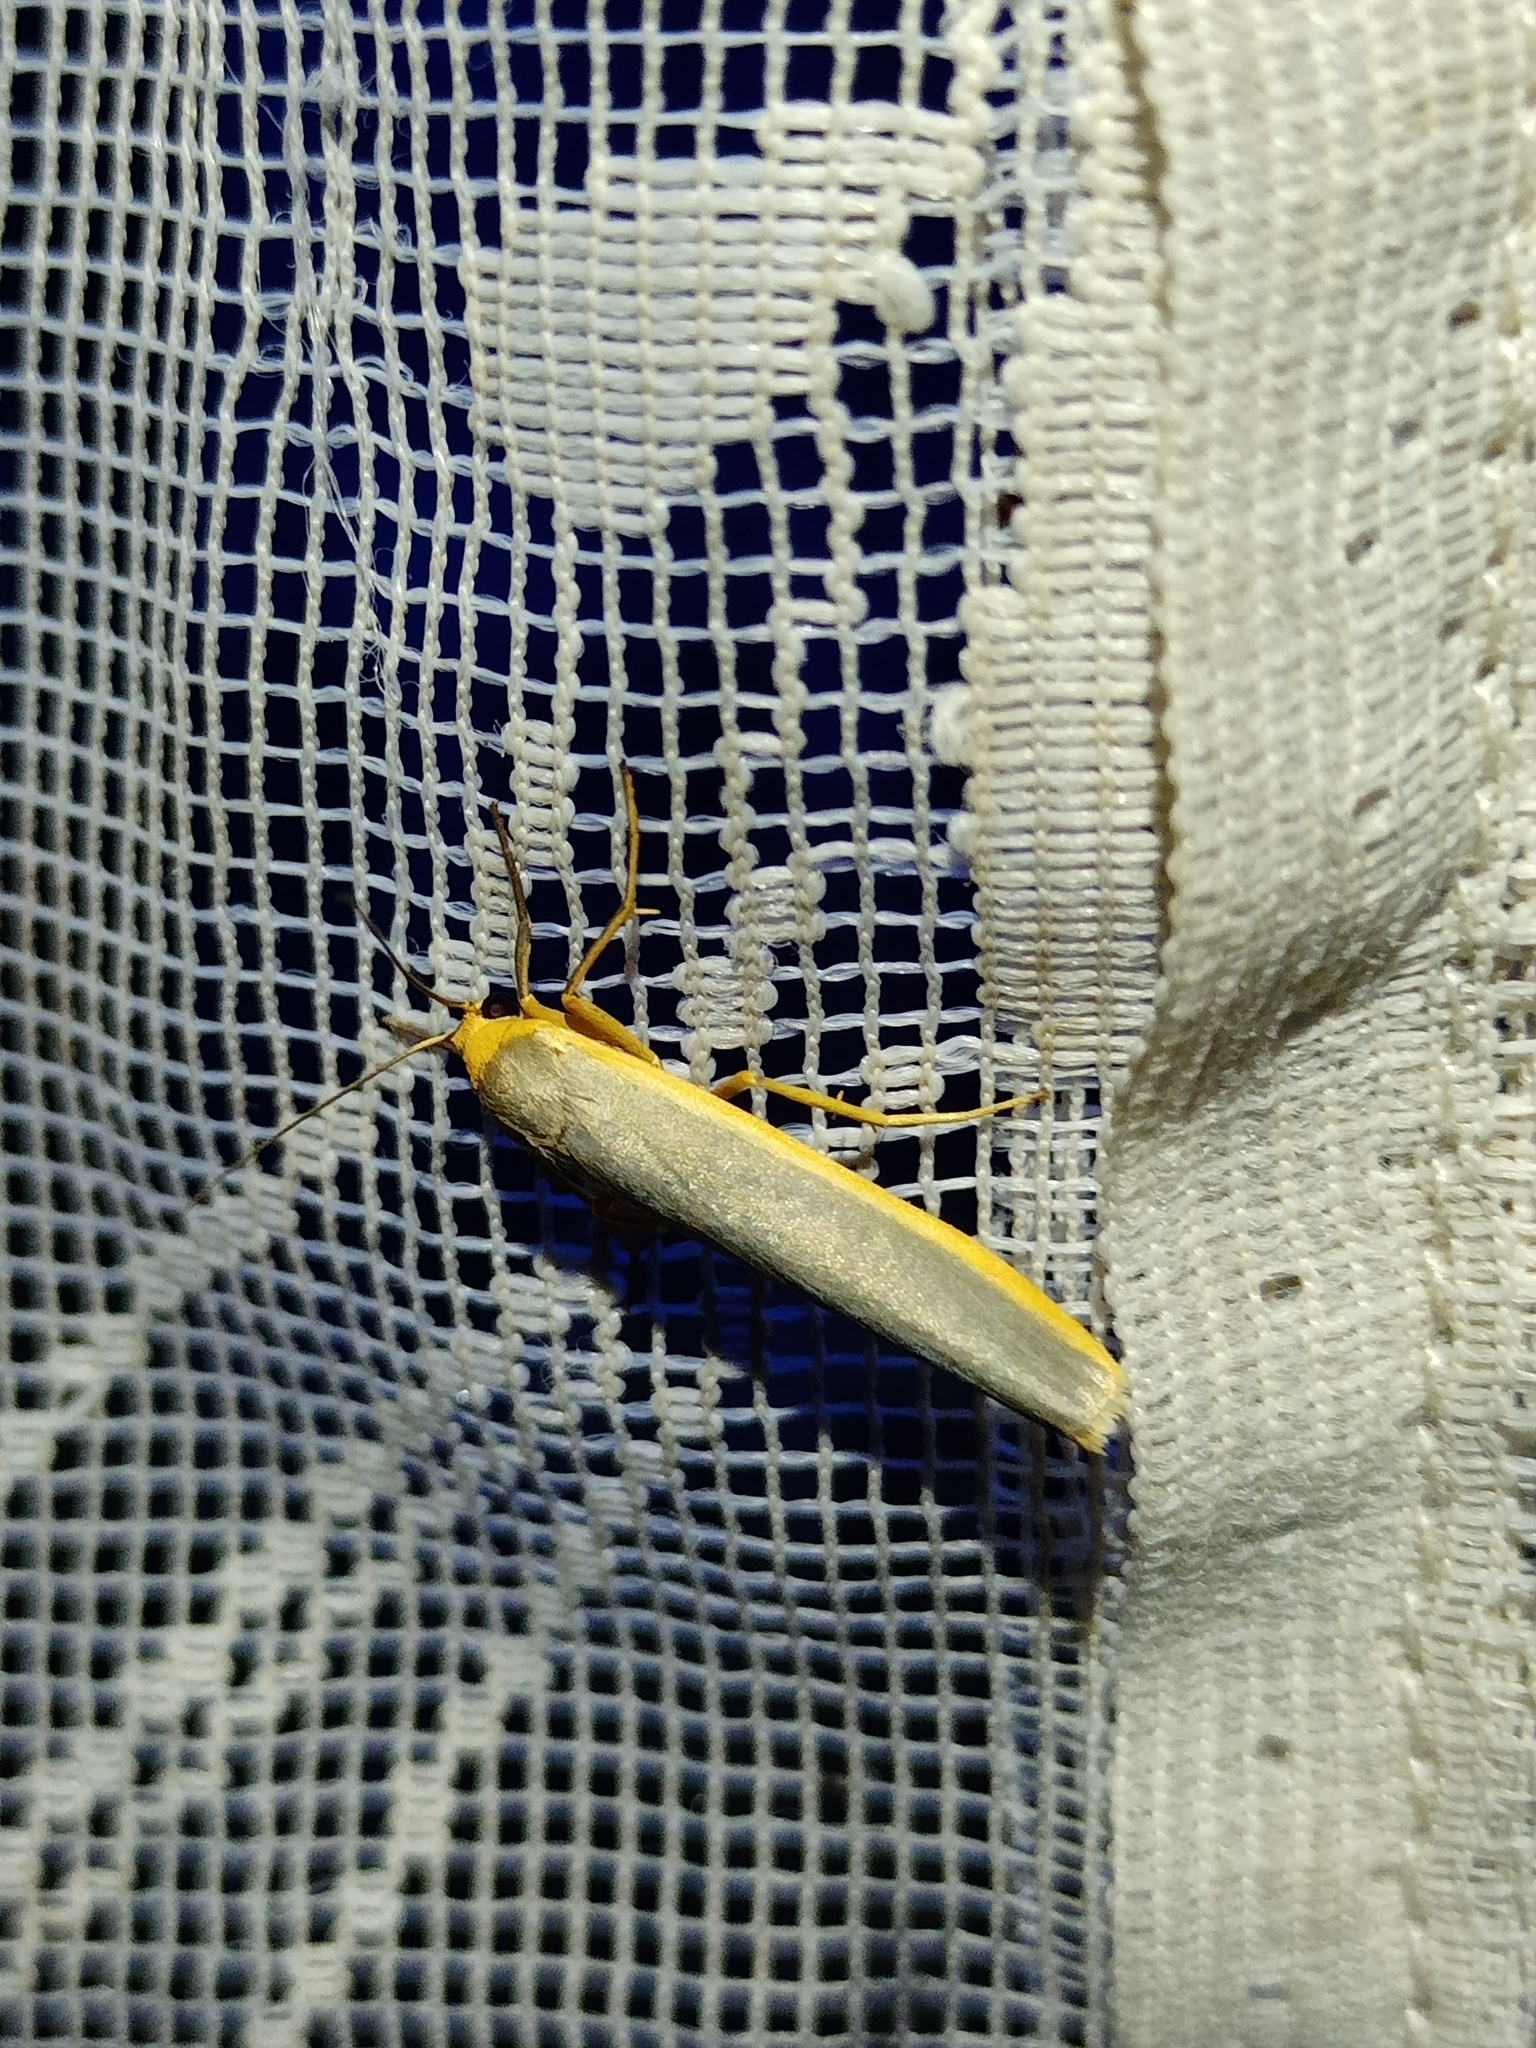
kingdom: Animalia
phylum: Arthropoda
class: Insecta
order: Lepidoptera
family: Erebidae
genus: Manulea
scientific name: Manulea complana
